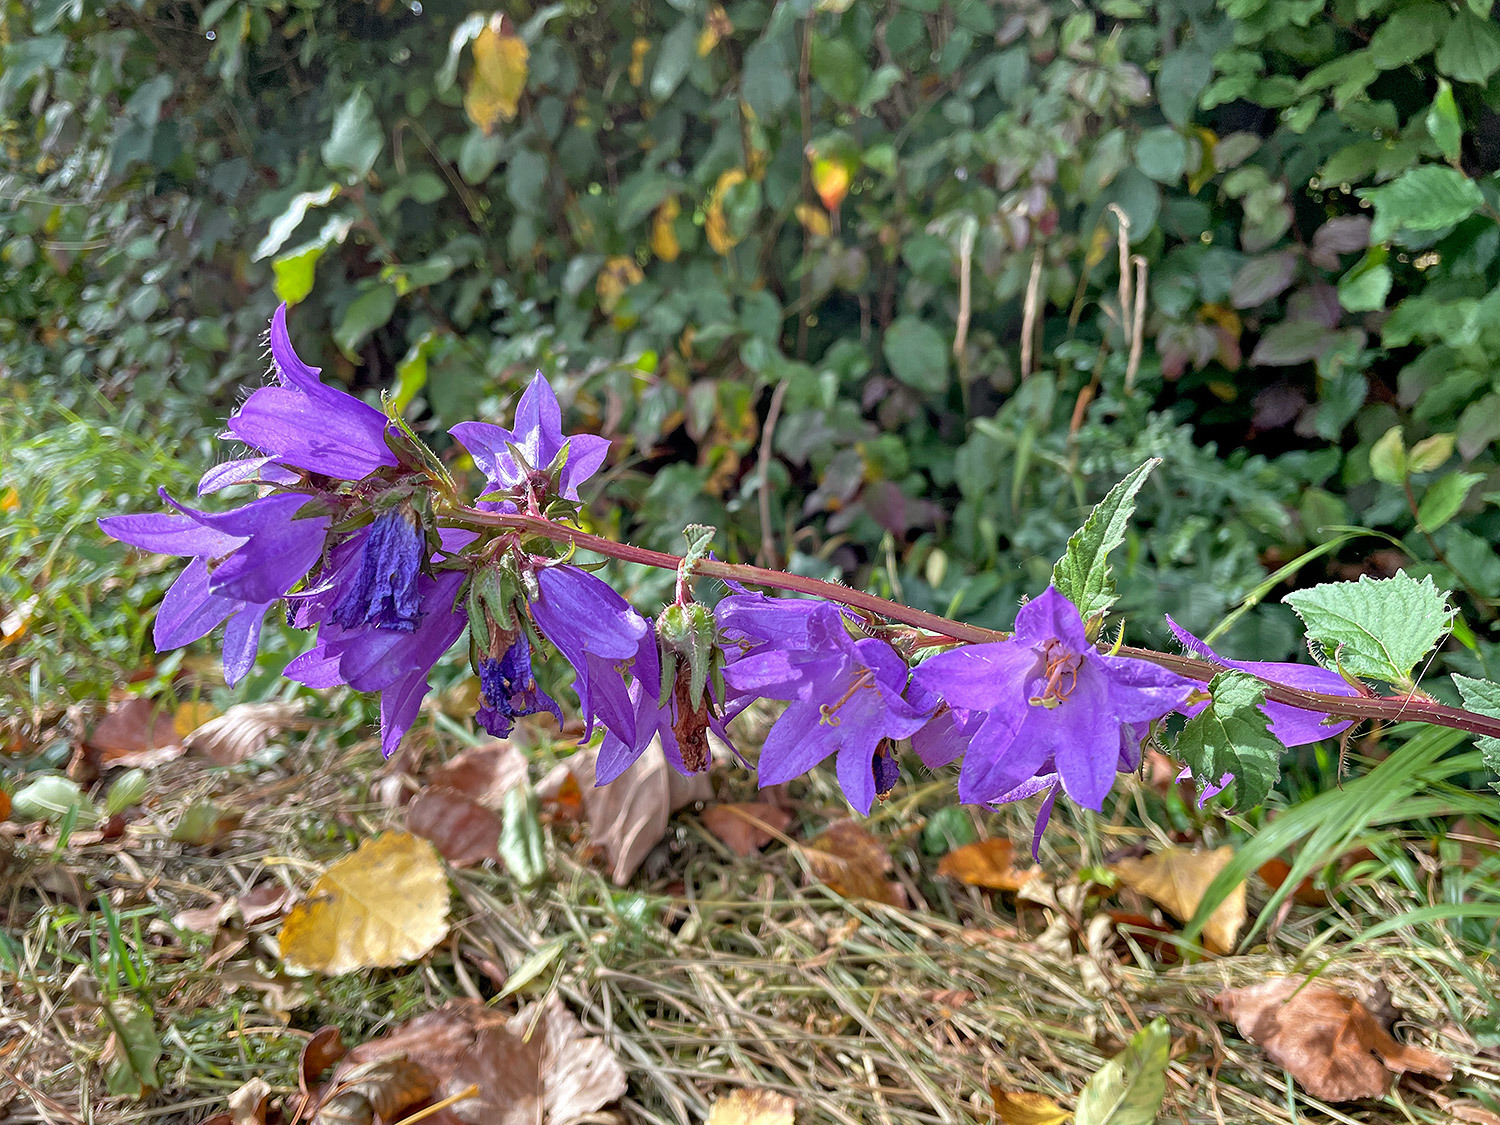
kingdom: Plantae
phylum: Tracheophyta
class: Magnoliopsida
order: Asterales
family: Campanulaceae
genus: Campanula
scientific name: Campanula trachelium
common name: Nettle-leaved bellflower
